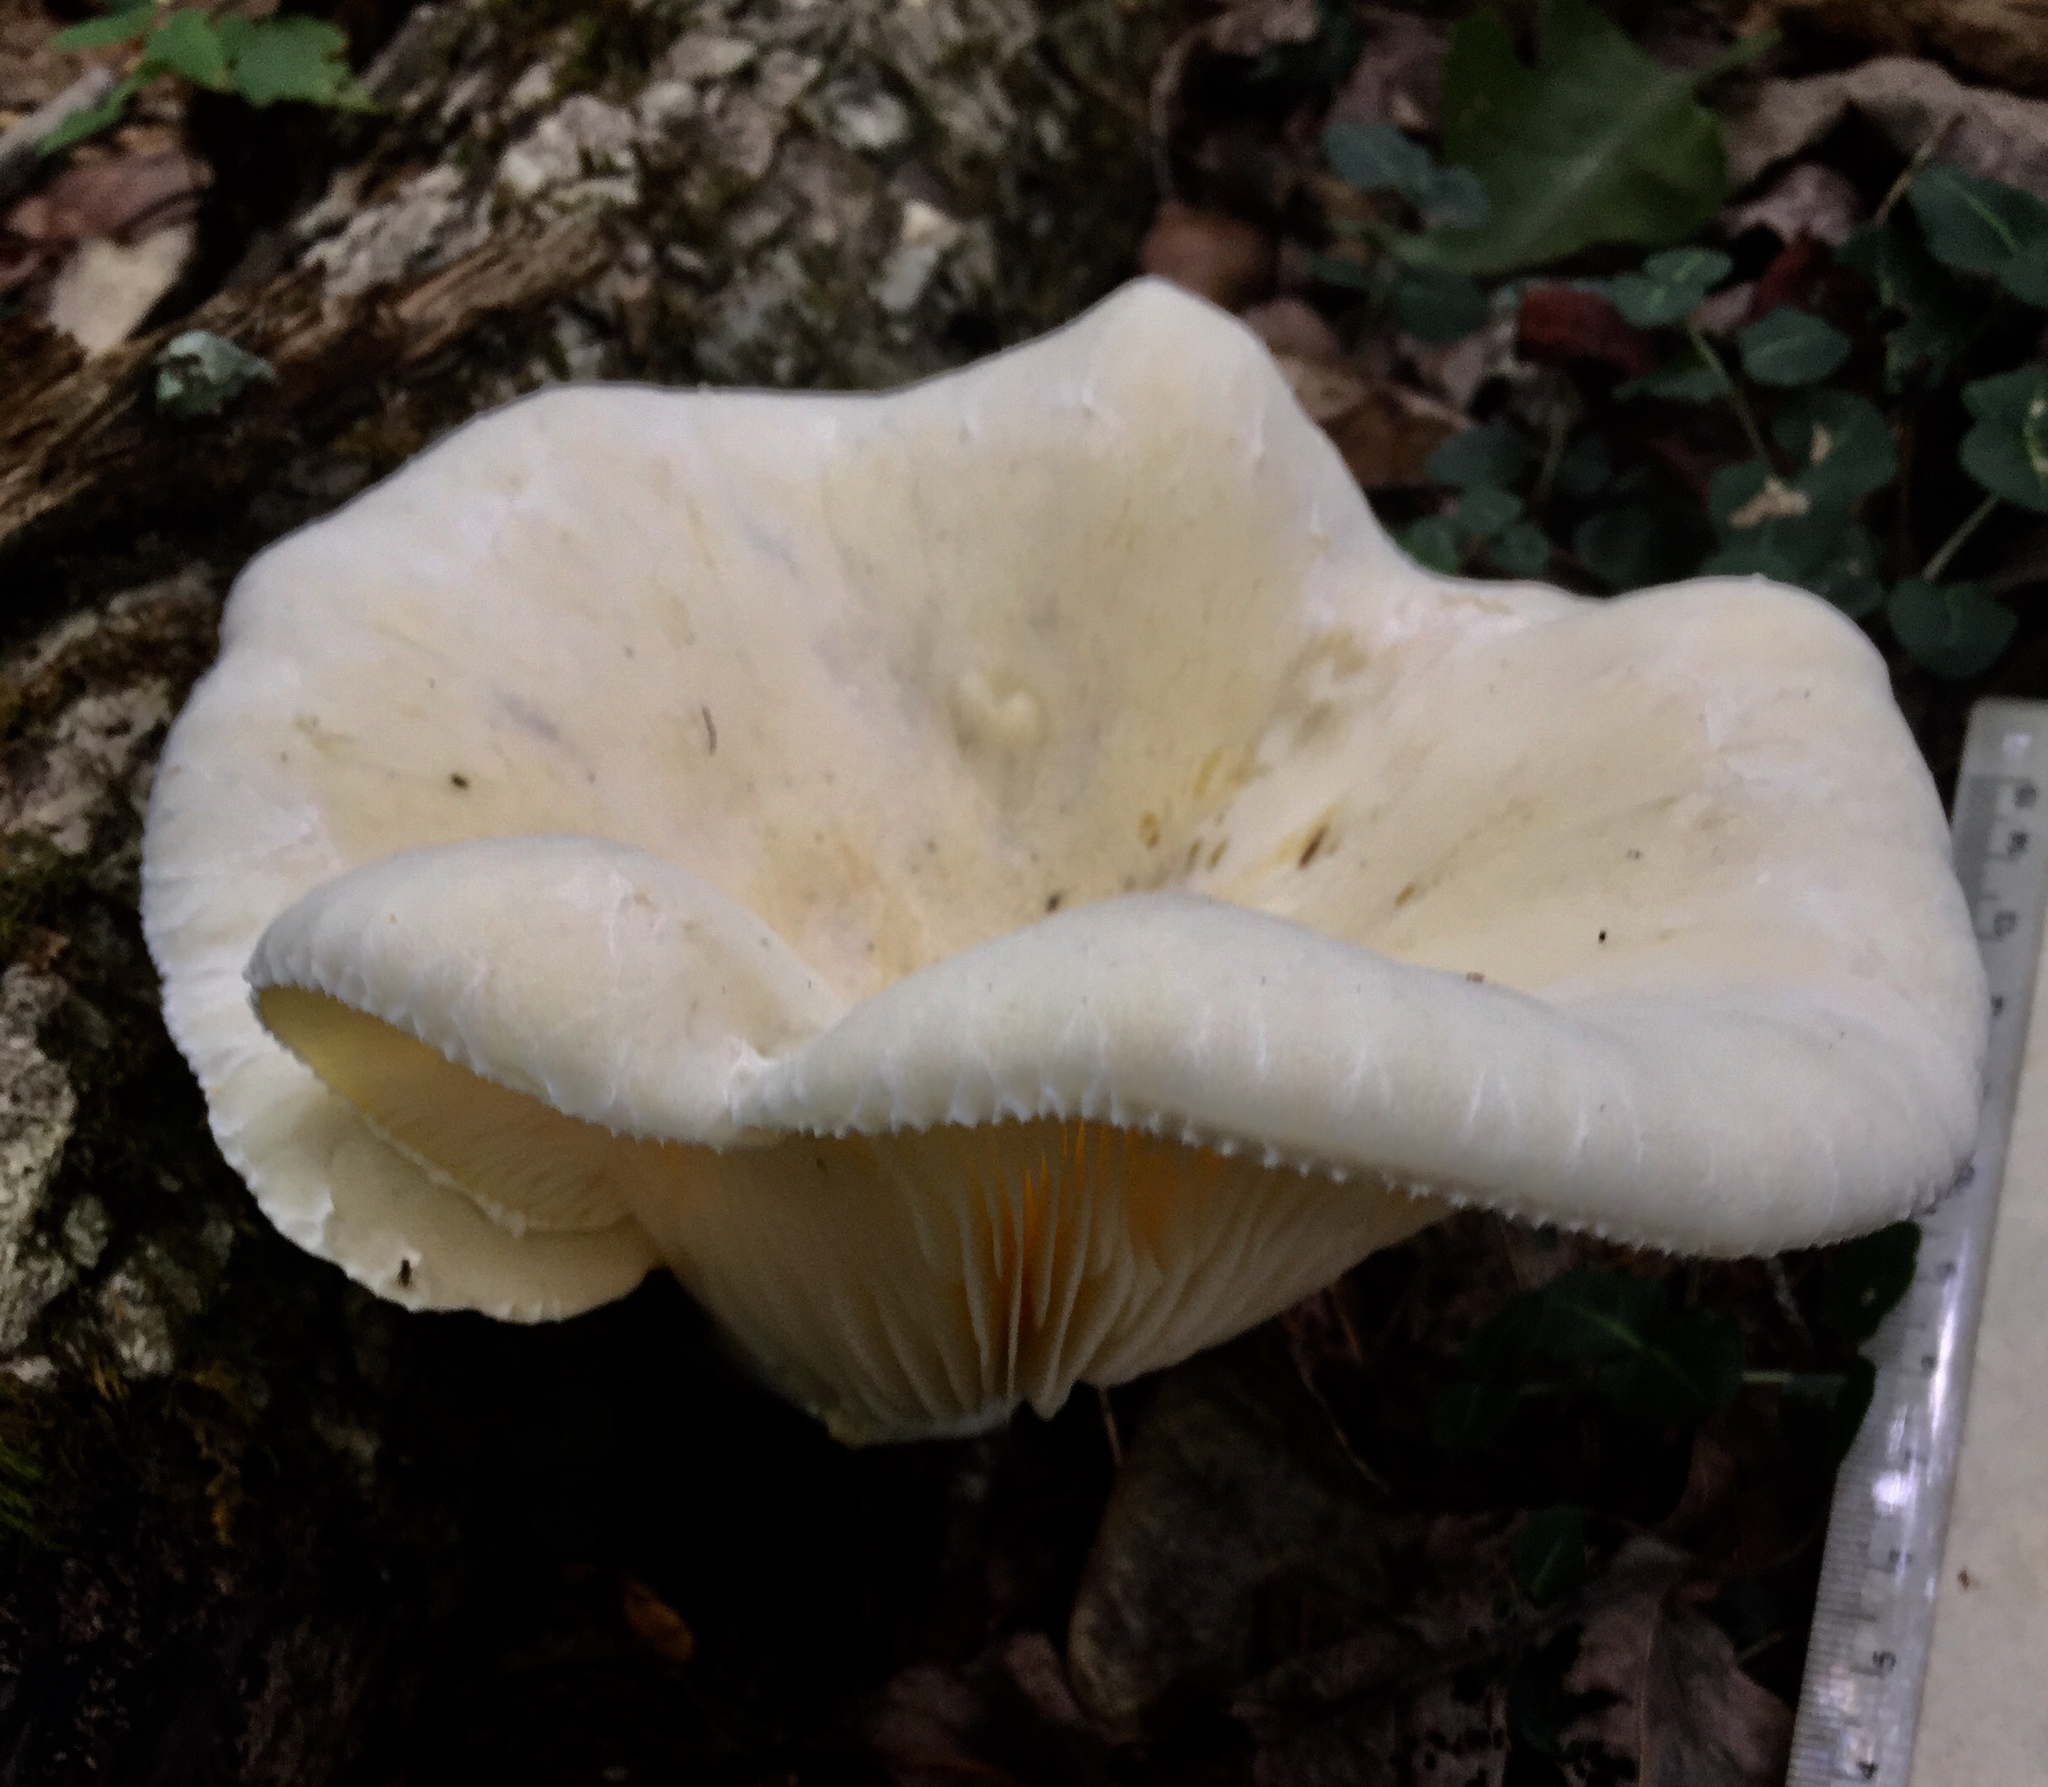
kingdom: Fungi
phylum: Basidiomycota
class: Agaricomycetes
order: Polyporales
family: Polyporaceae
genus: Lentinus
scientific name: Lentinus levis
